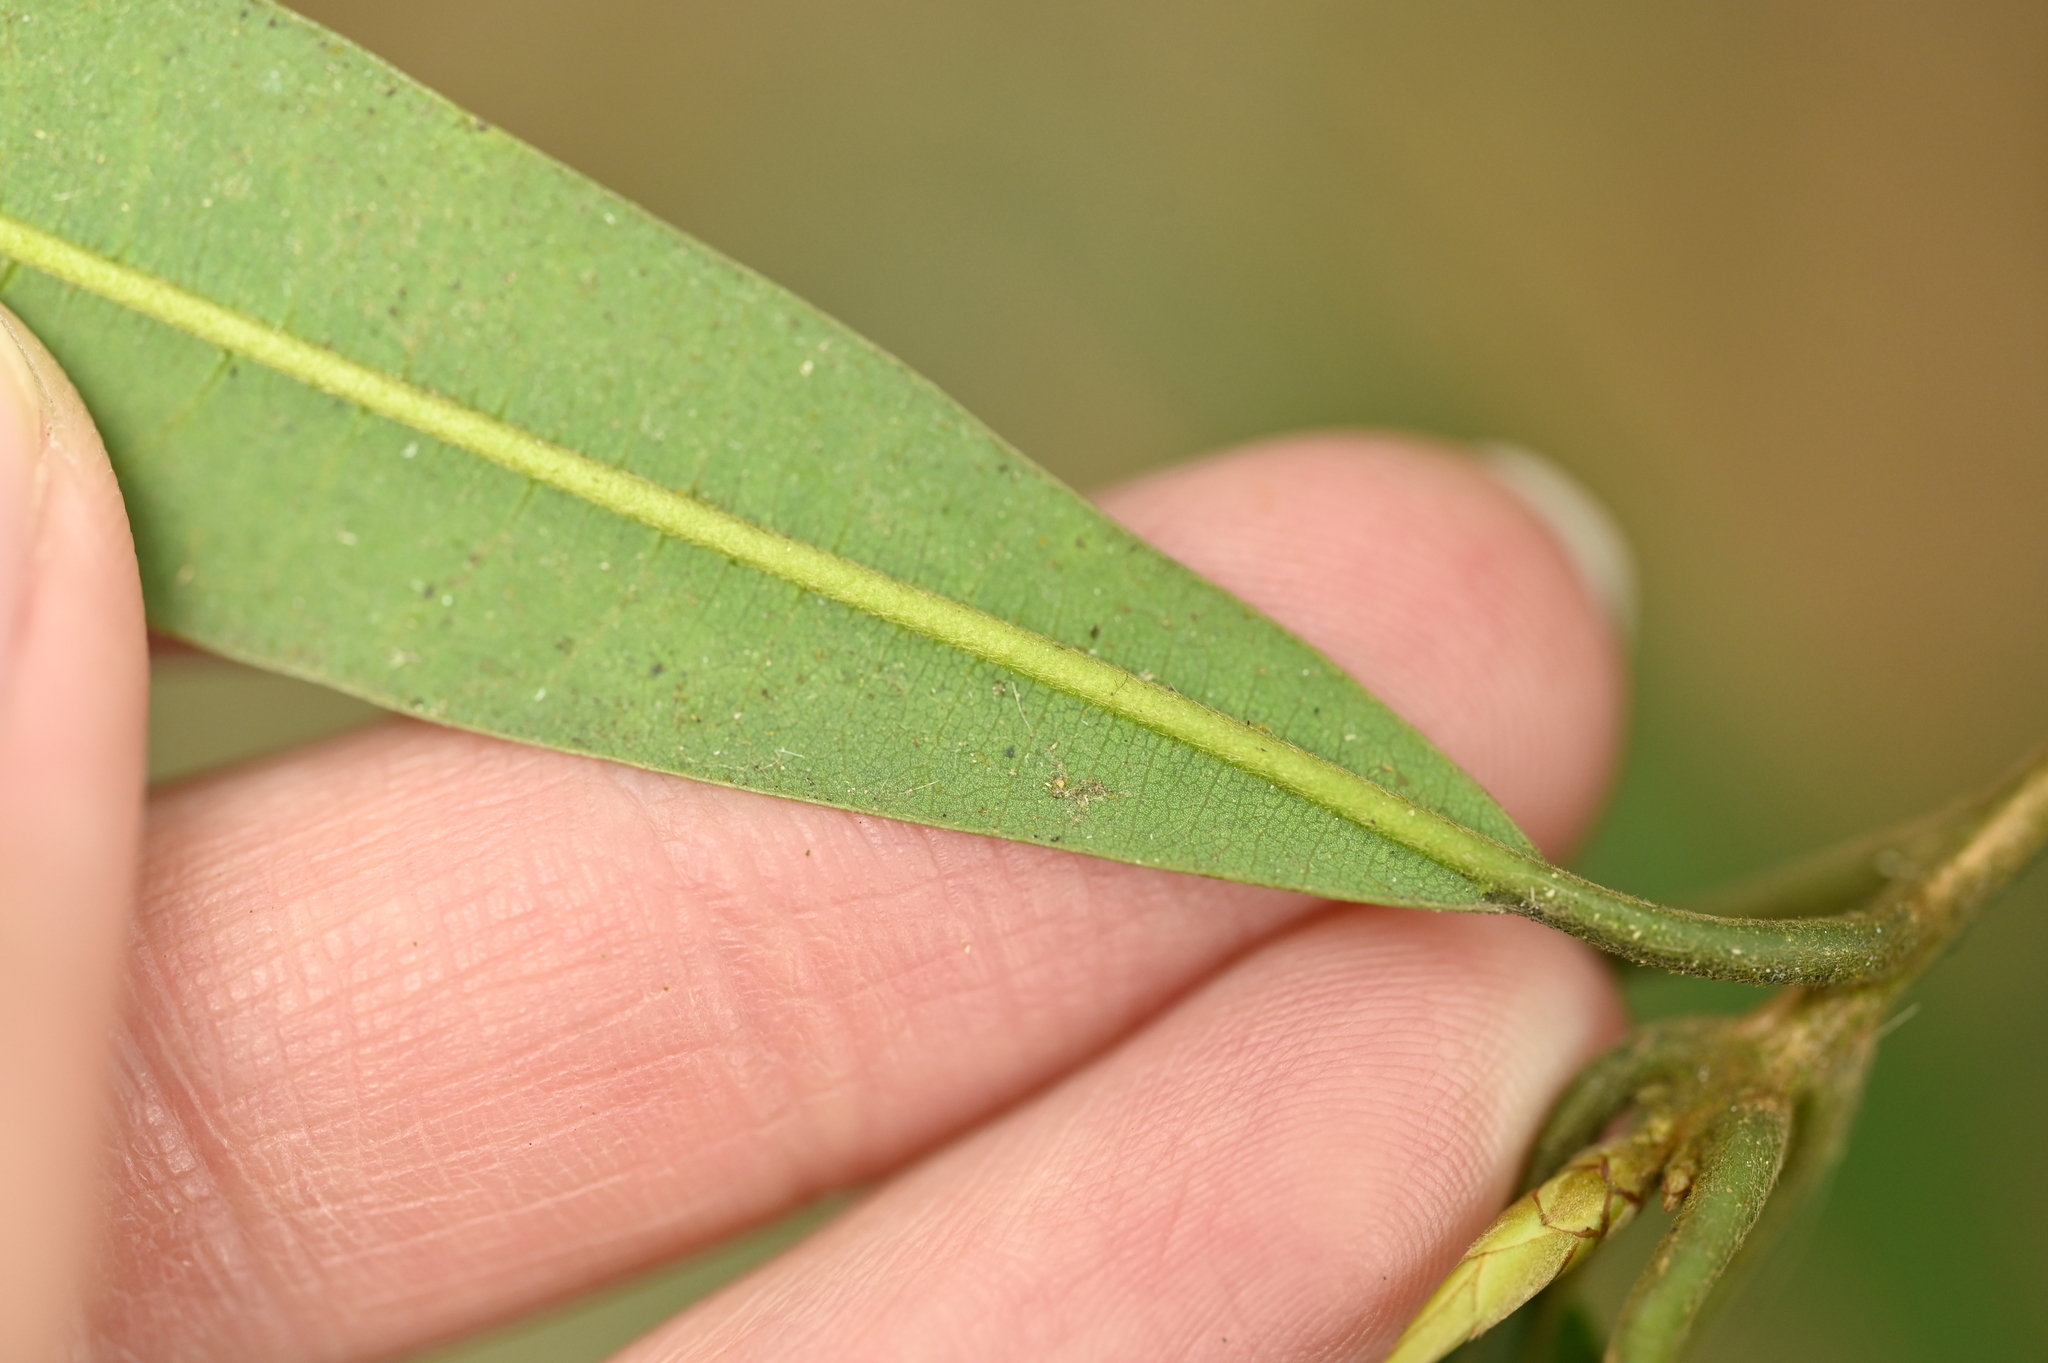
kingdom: Plantae
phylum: Tracheophyta
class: Magnoliopsida
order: Laurales
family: Lauraceae
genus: Litsea
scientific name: Litsea pseudoelongata
